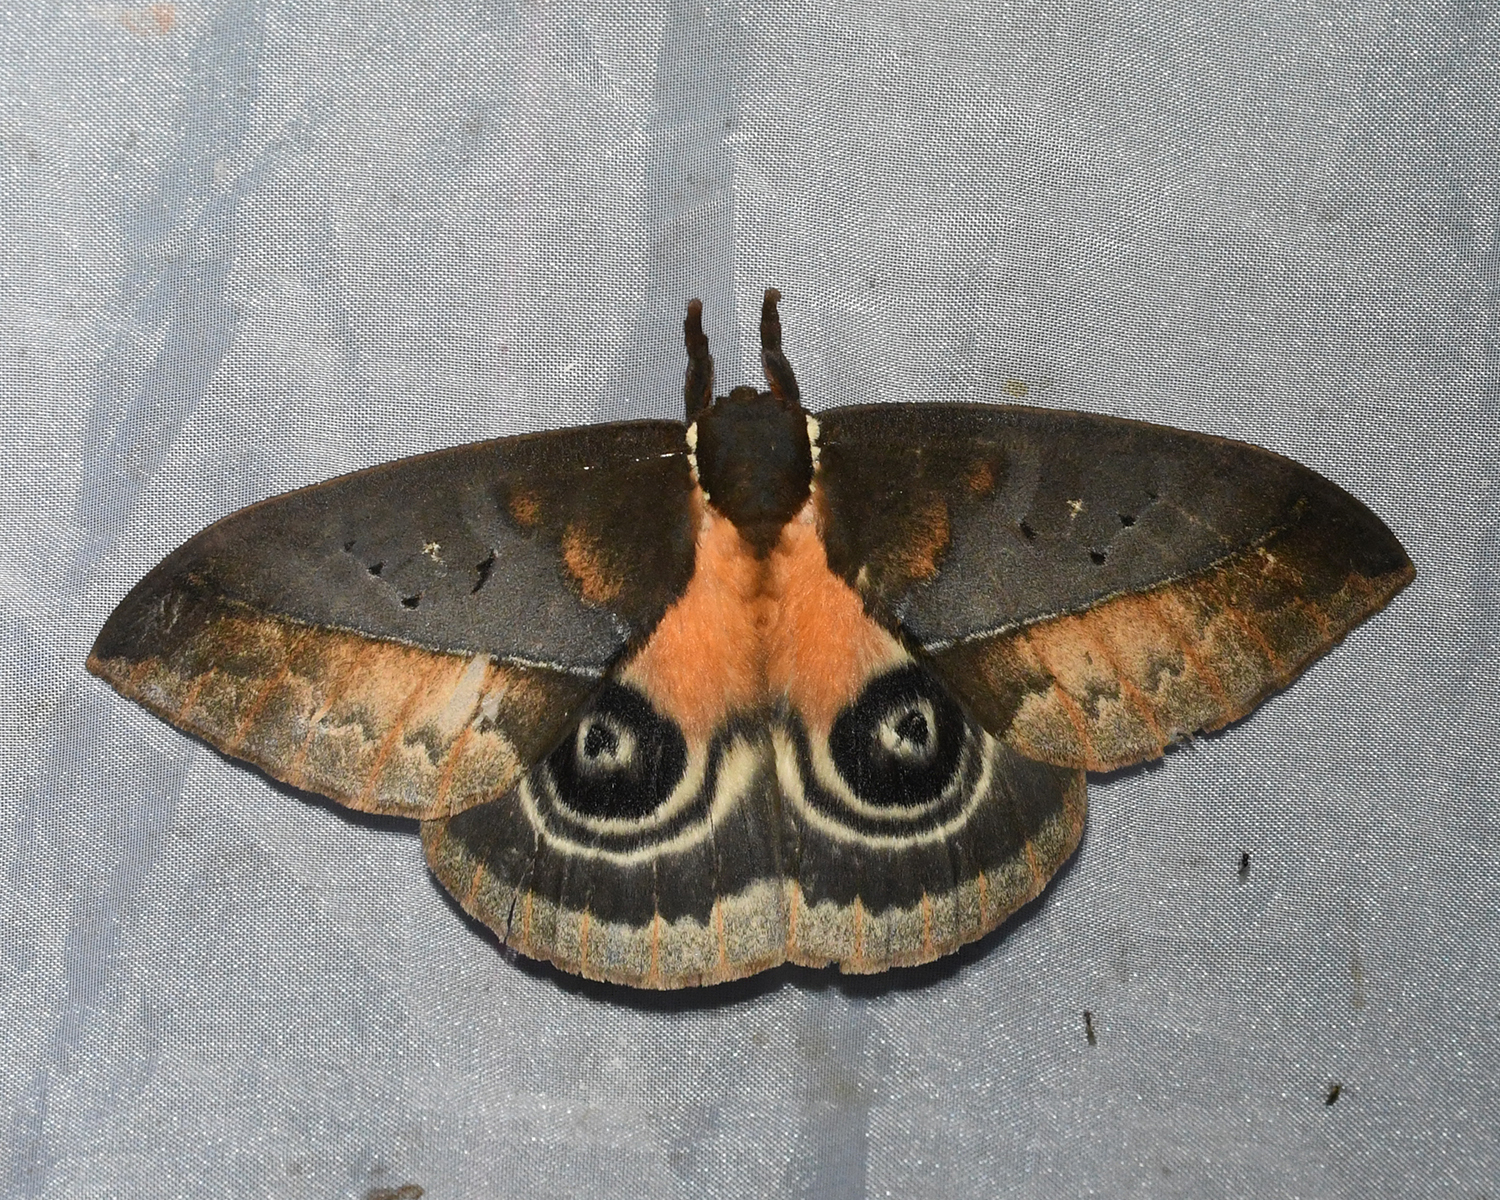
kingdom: Animalia
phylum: Arthropoda
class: Insecta
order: Lepidoptera
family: Saturniidae
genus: Automeris
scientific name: Automeris egeus
